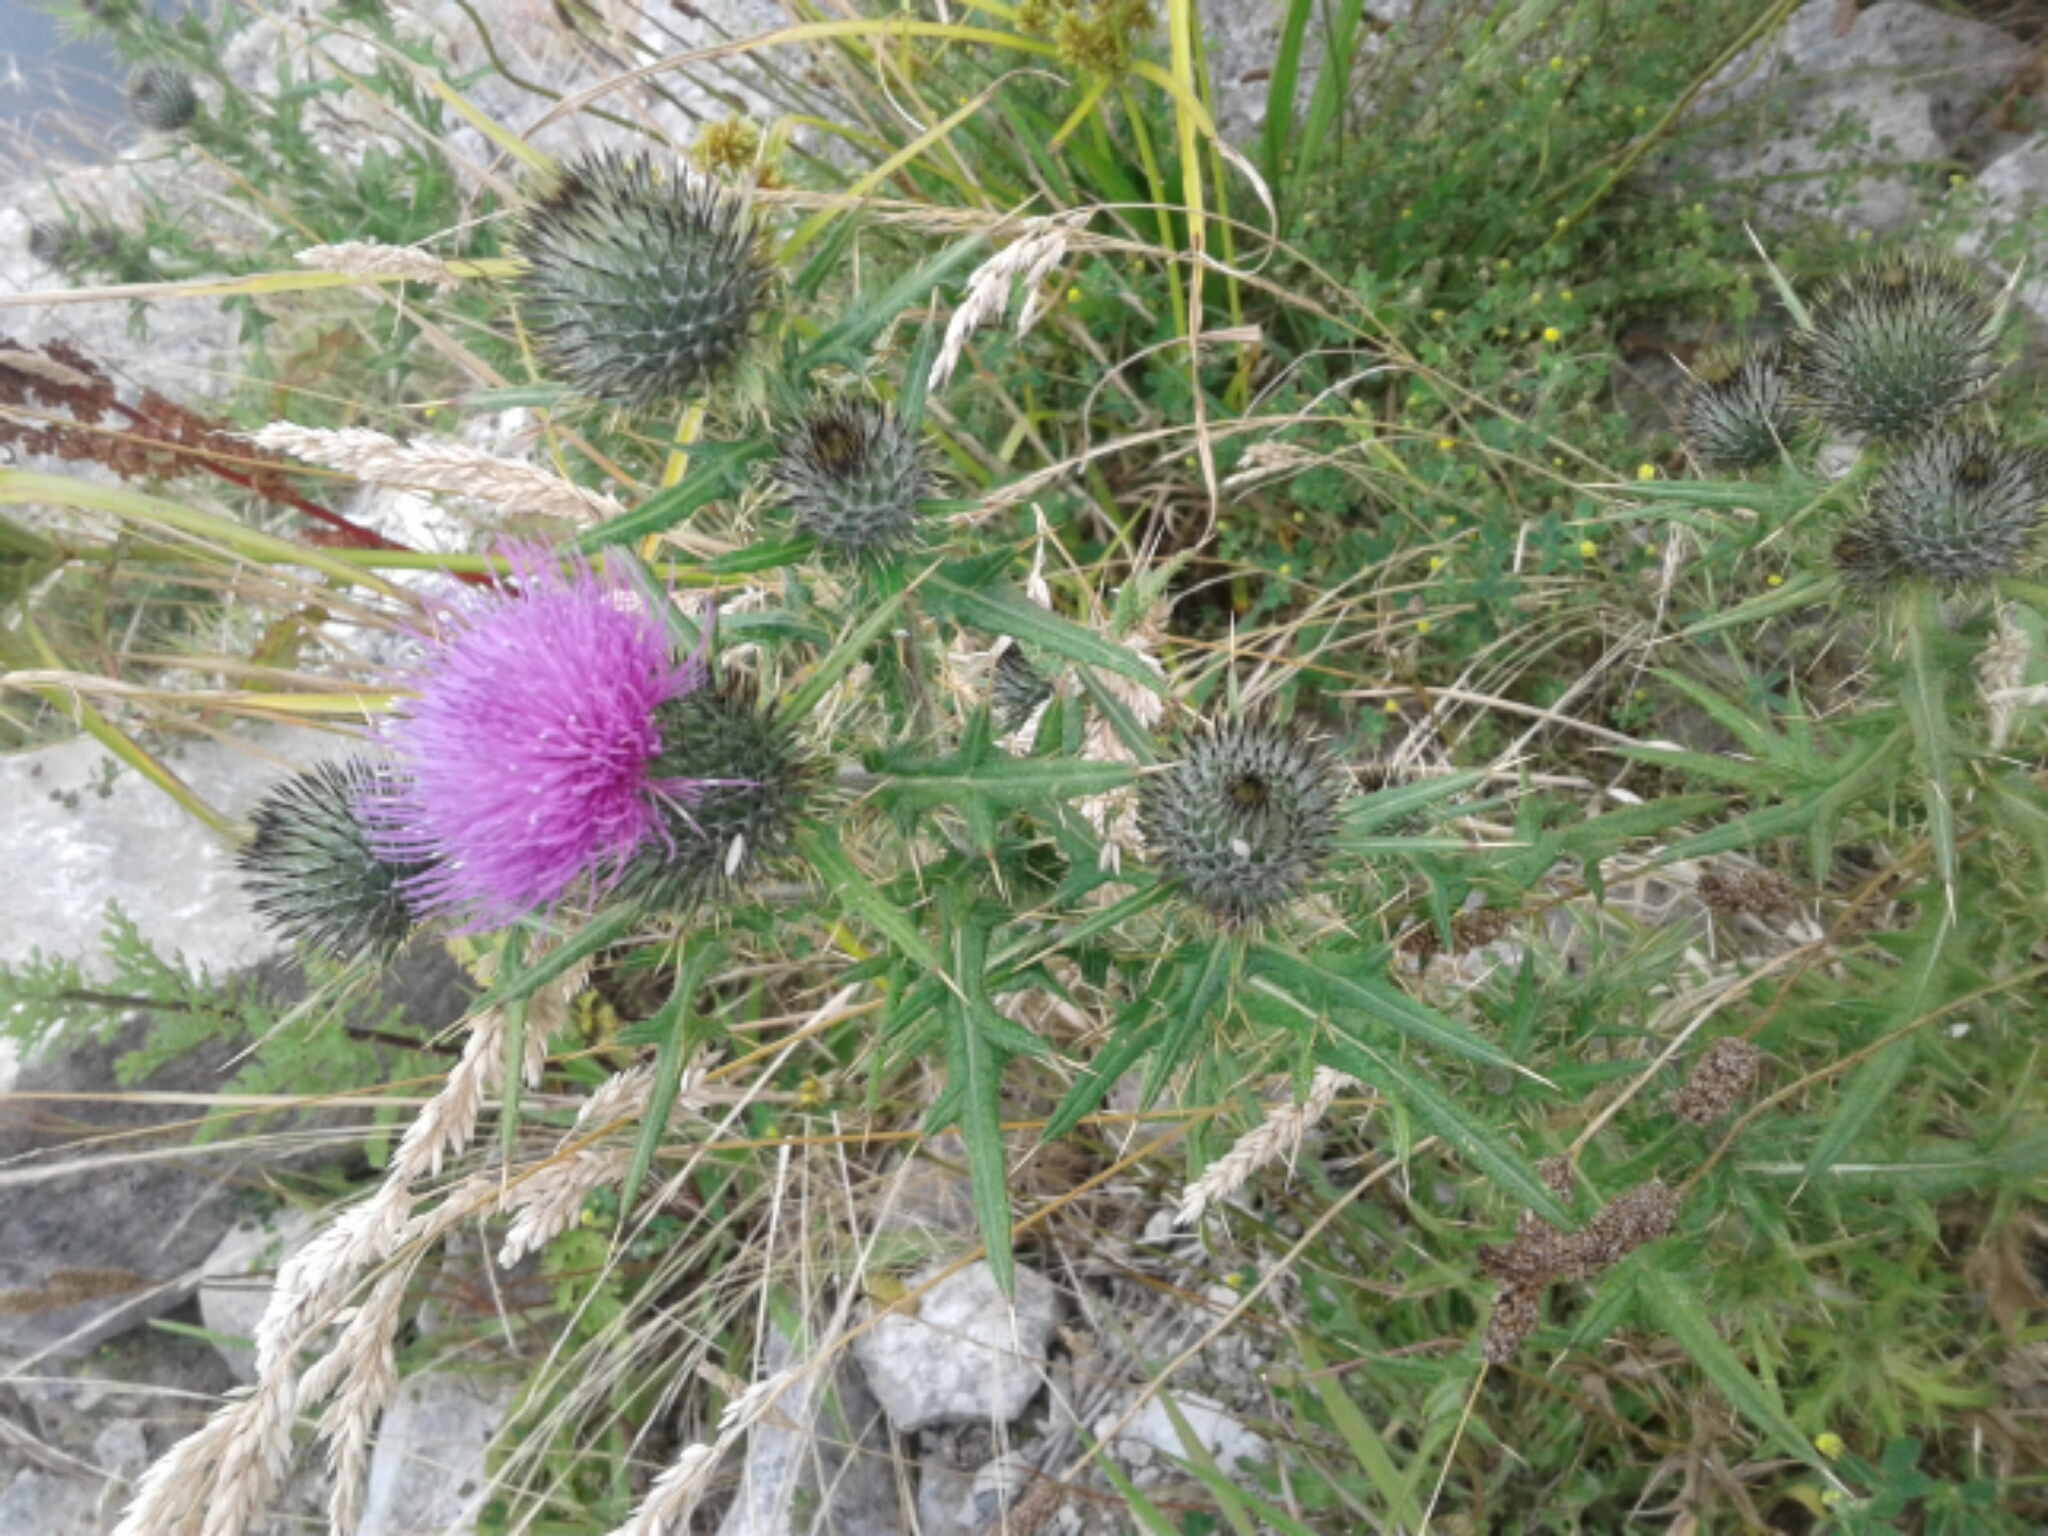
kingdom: Plantae
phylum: Tracheophyta
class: Magnoliopsida
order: Asterales
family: Asteraceae
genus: Cirsium
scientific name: Cirsium vulgare
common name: Bull thistle
